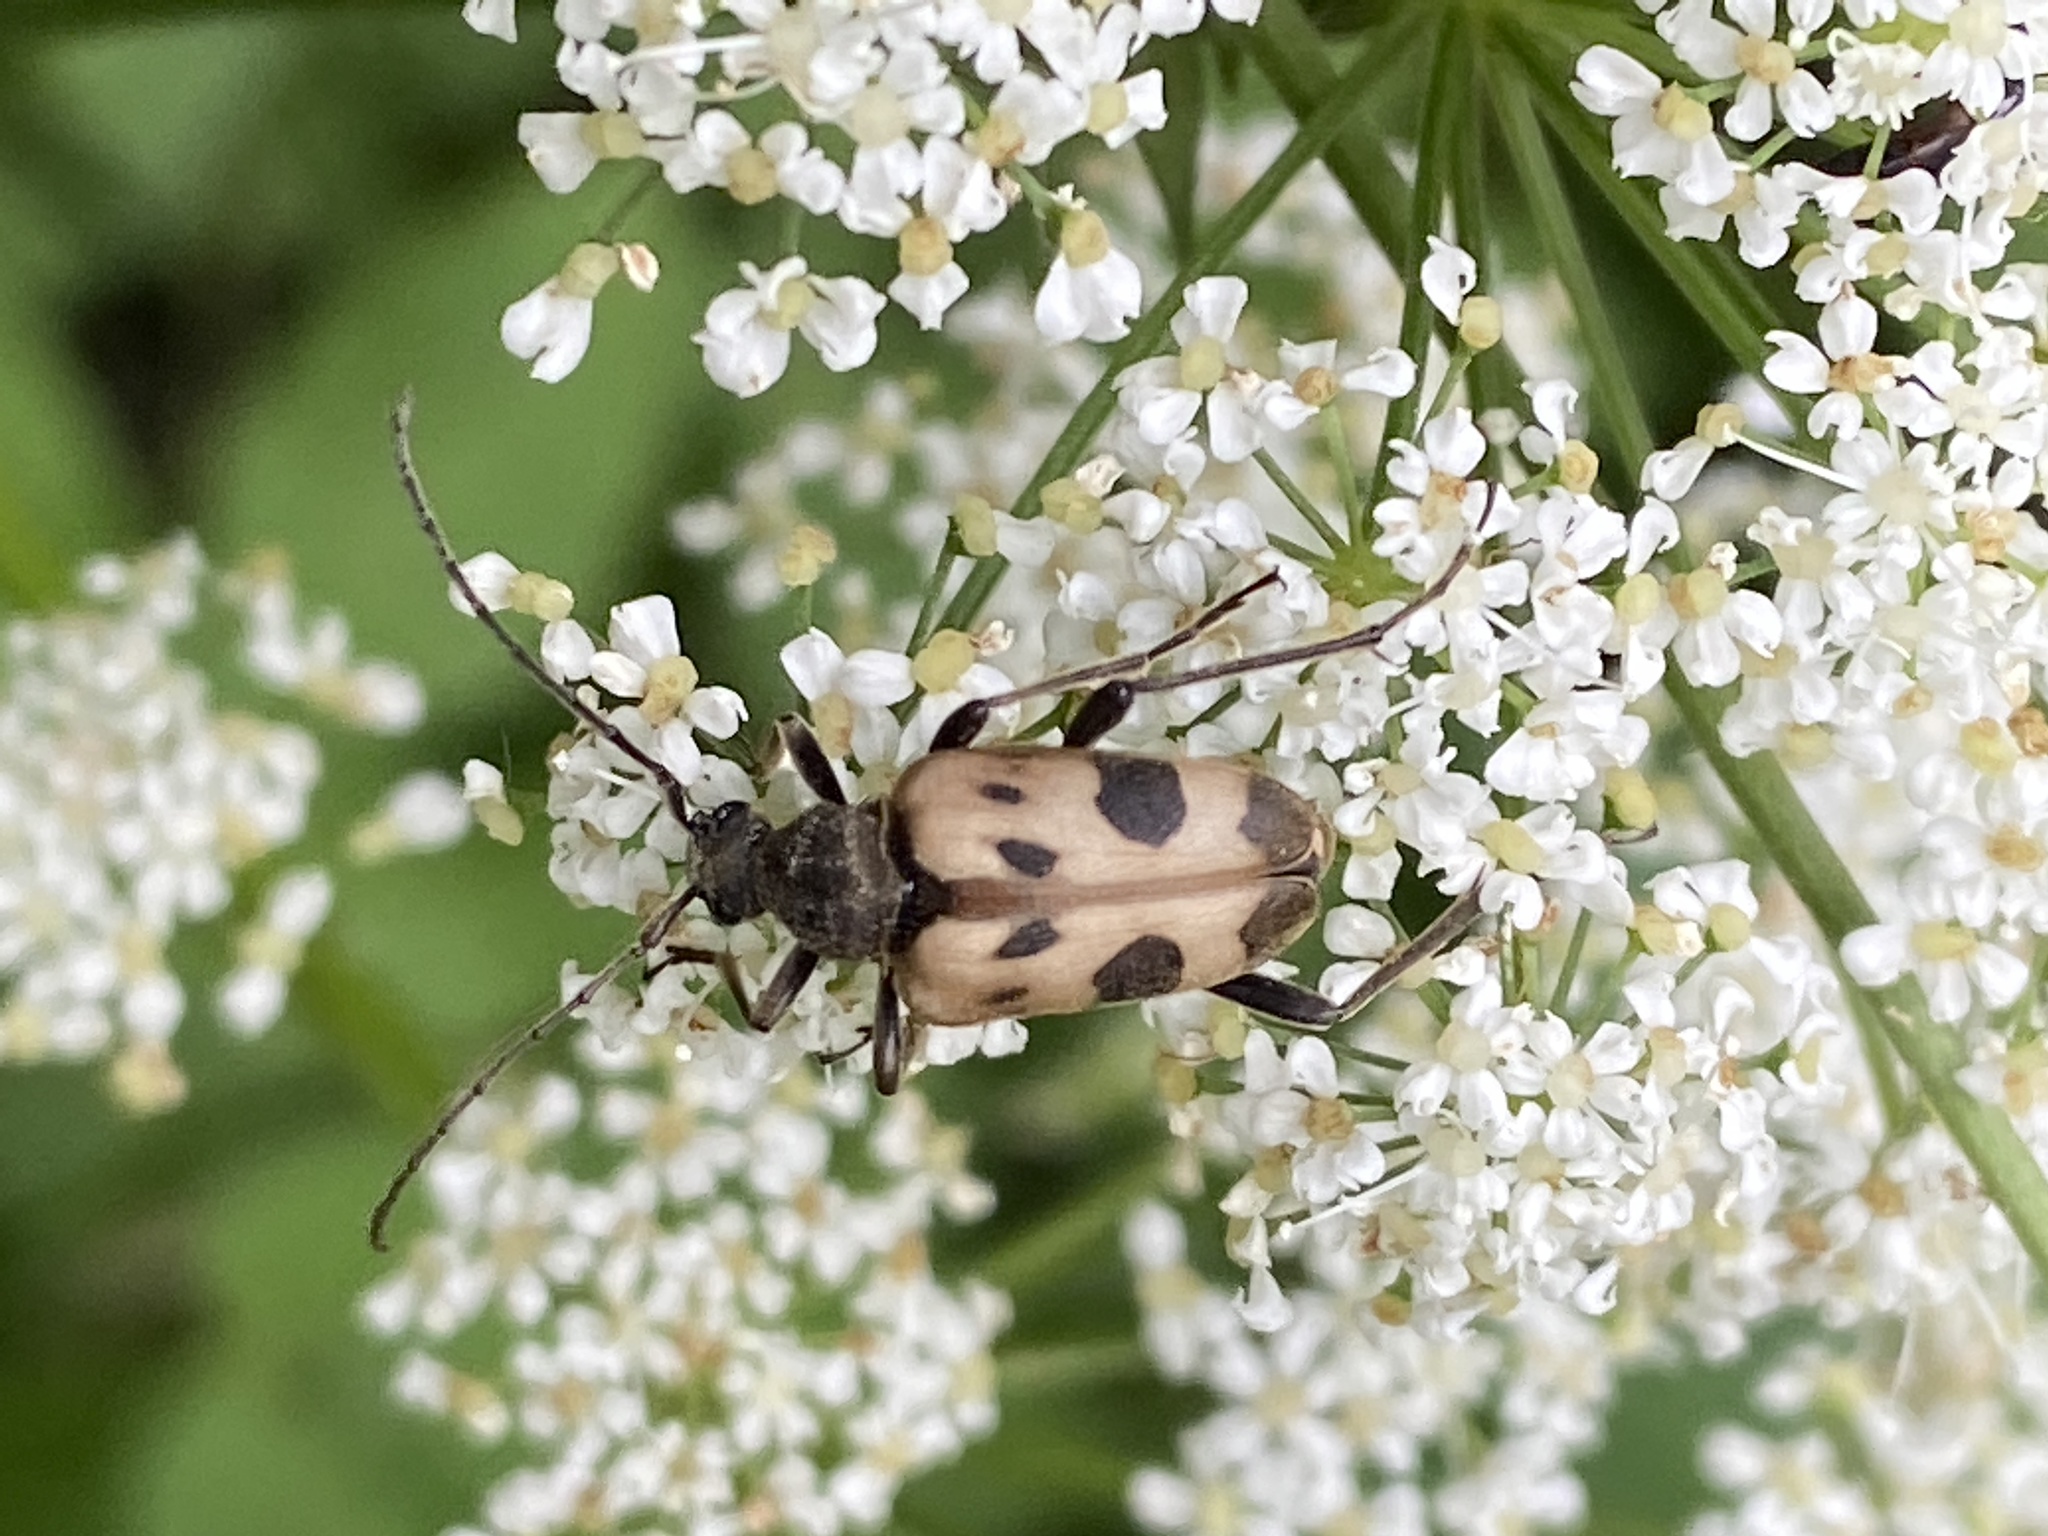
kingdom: Animalia
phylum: Arthropoda
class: Insecta
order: Coleoptera
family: Cerambycidae
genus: Pachytodes
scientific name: Pachytodes cerambyciformis
